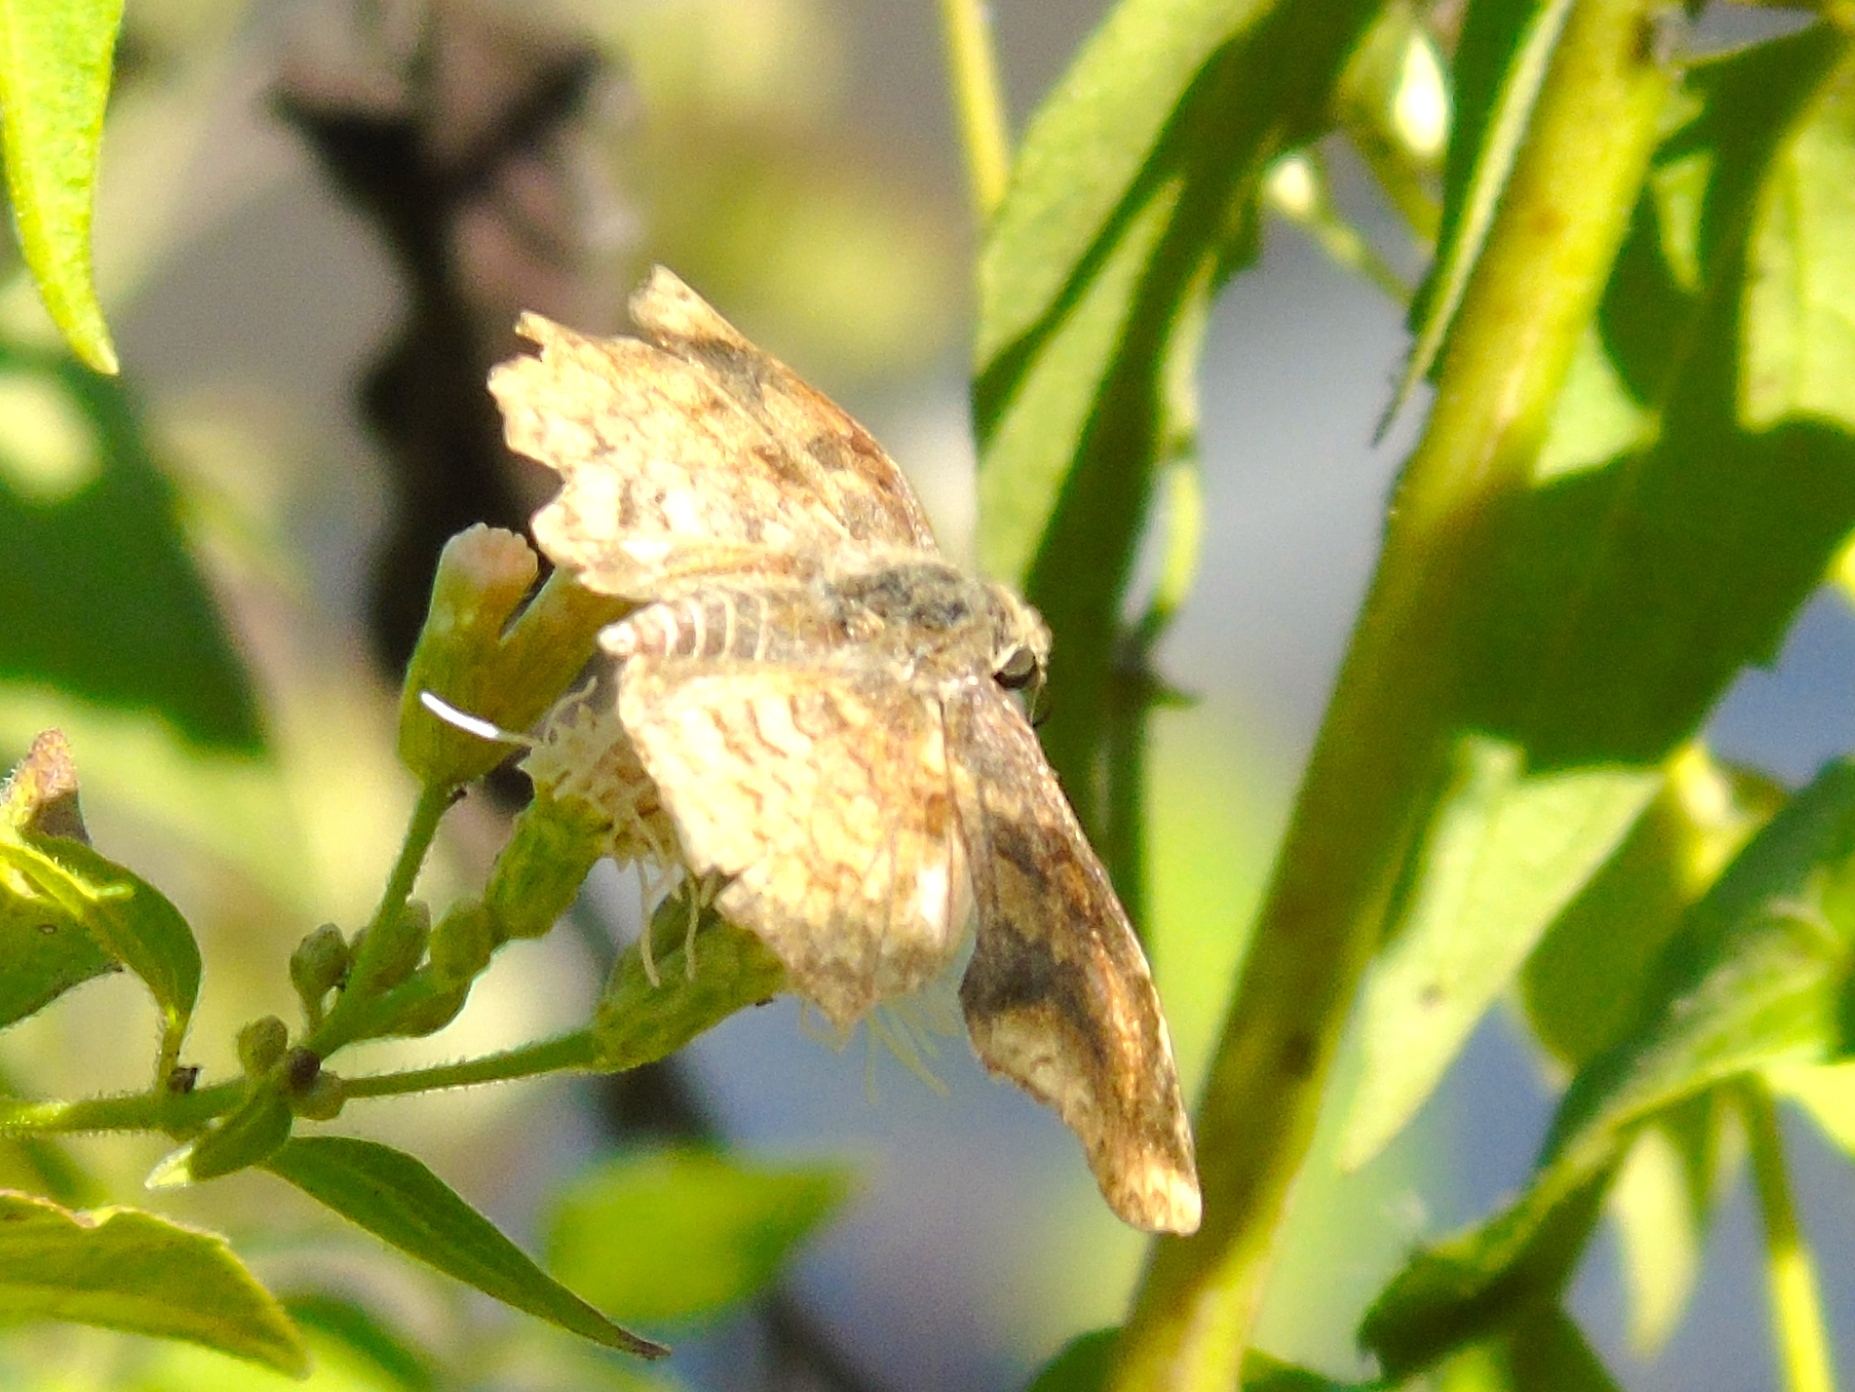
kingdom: Animalia
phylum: Arthropoda
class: Insecta
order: Lepidoptera
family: Hesperiidae
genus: Pyrginae
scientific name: Pyrginae
